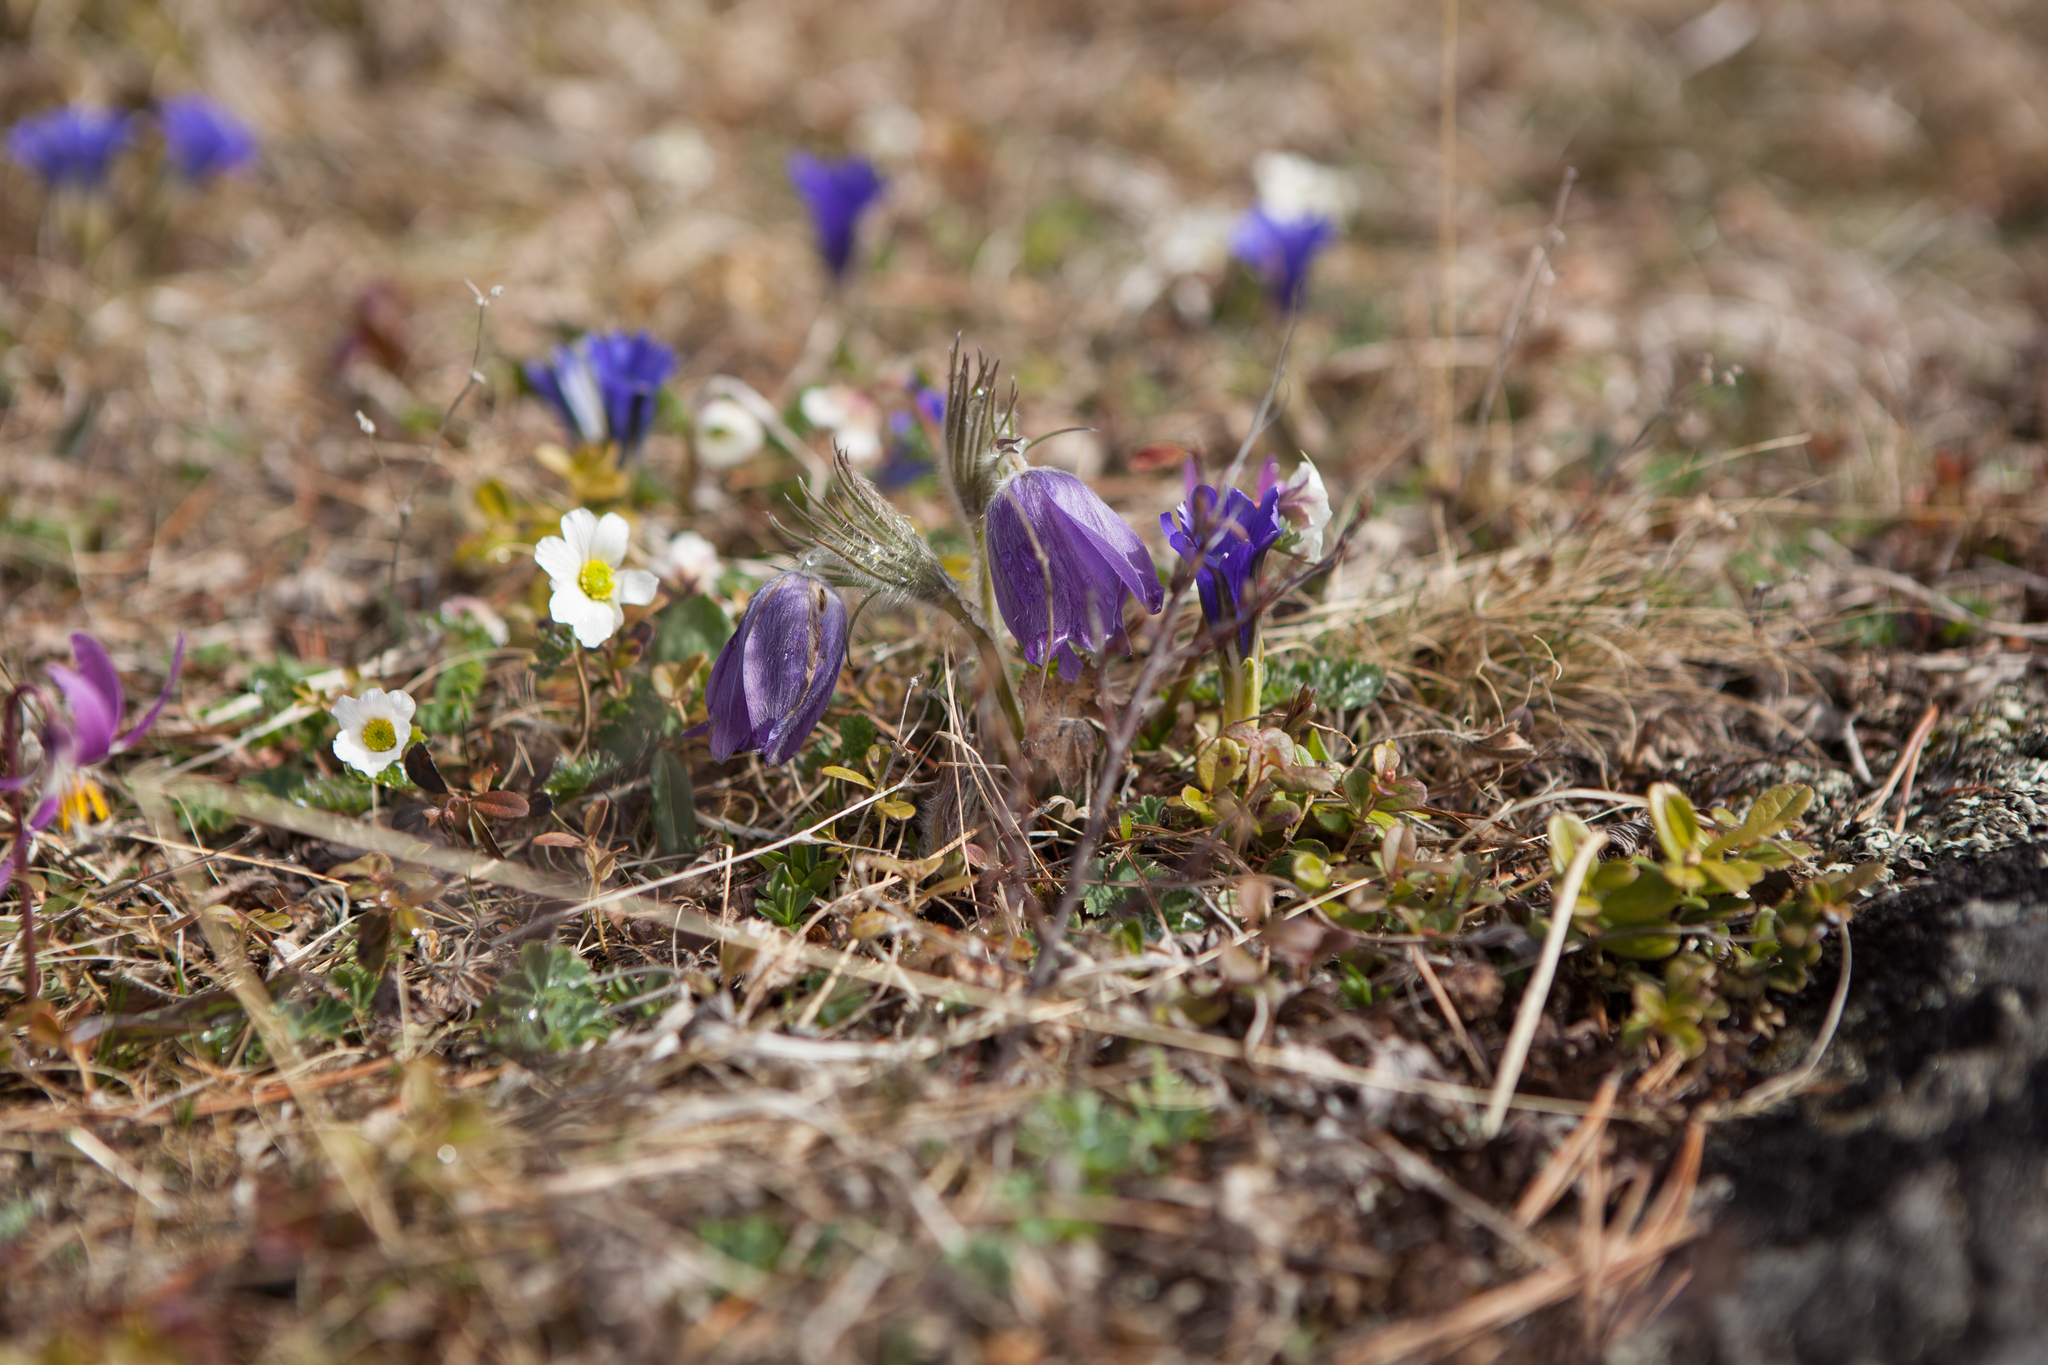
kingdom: Plantae
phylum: Tracheophyta
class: Magnoliopsida
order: Ranunculales
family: Ranunculaceae
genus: Pulsatilla
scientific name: Pulsatilla patens
